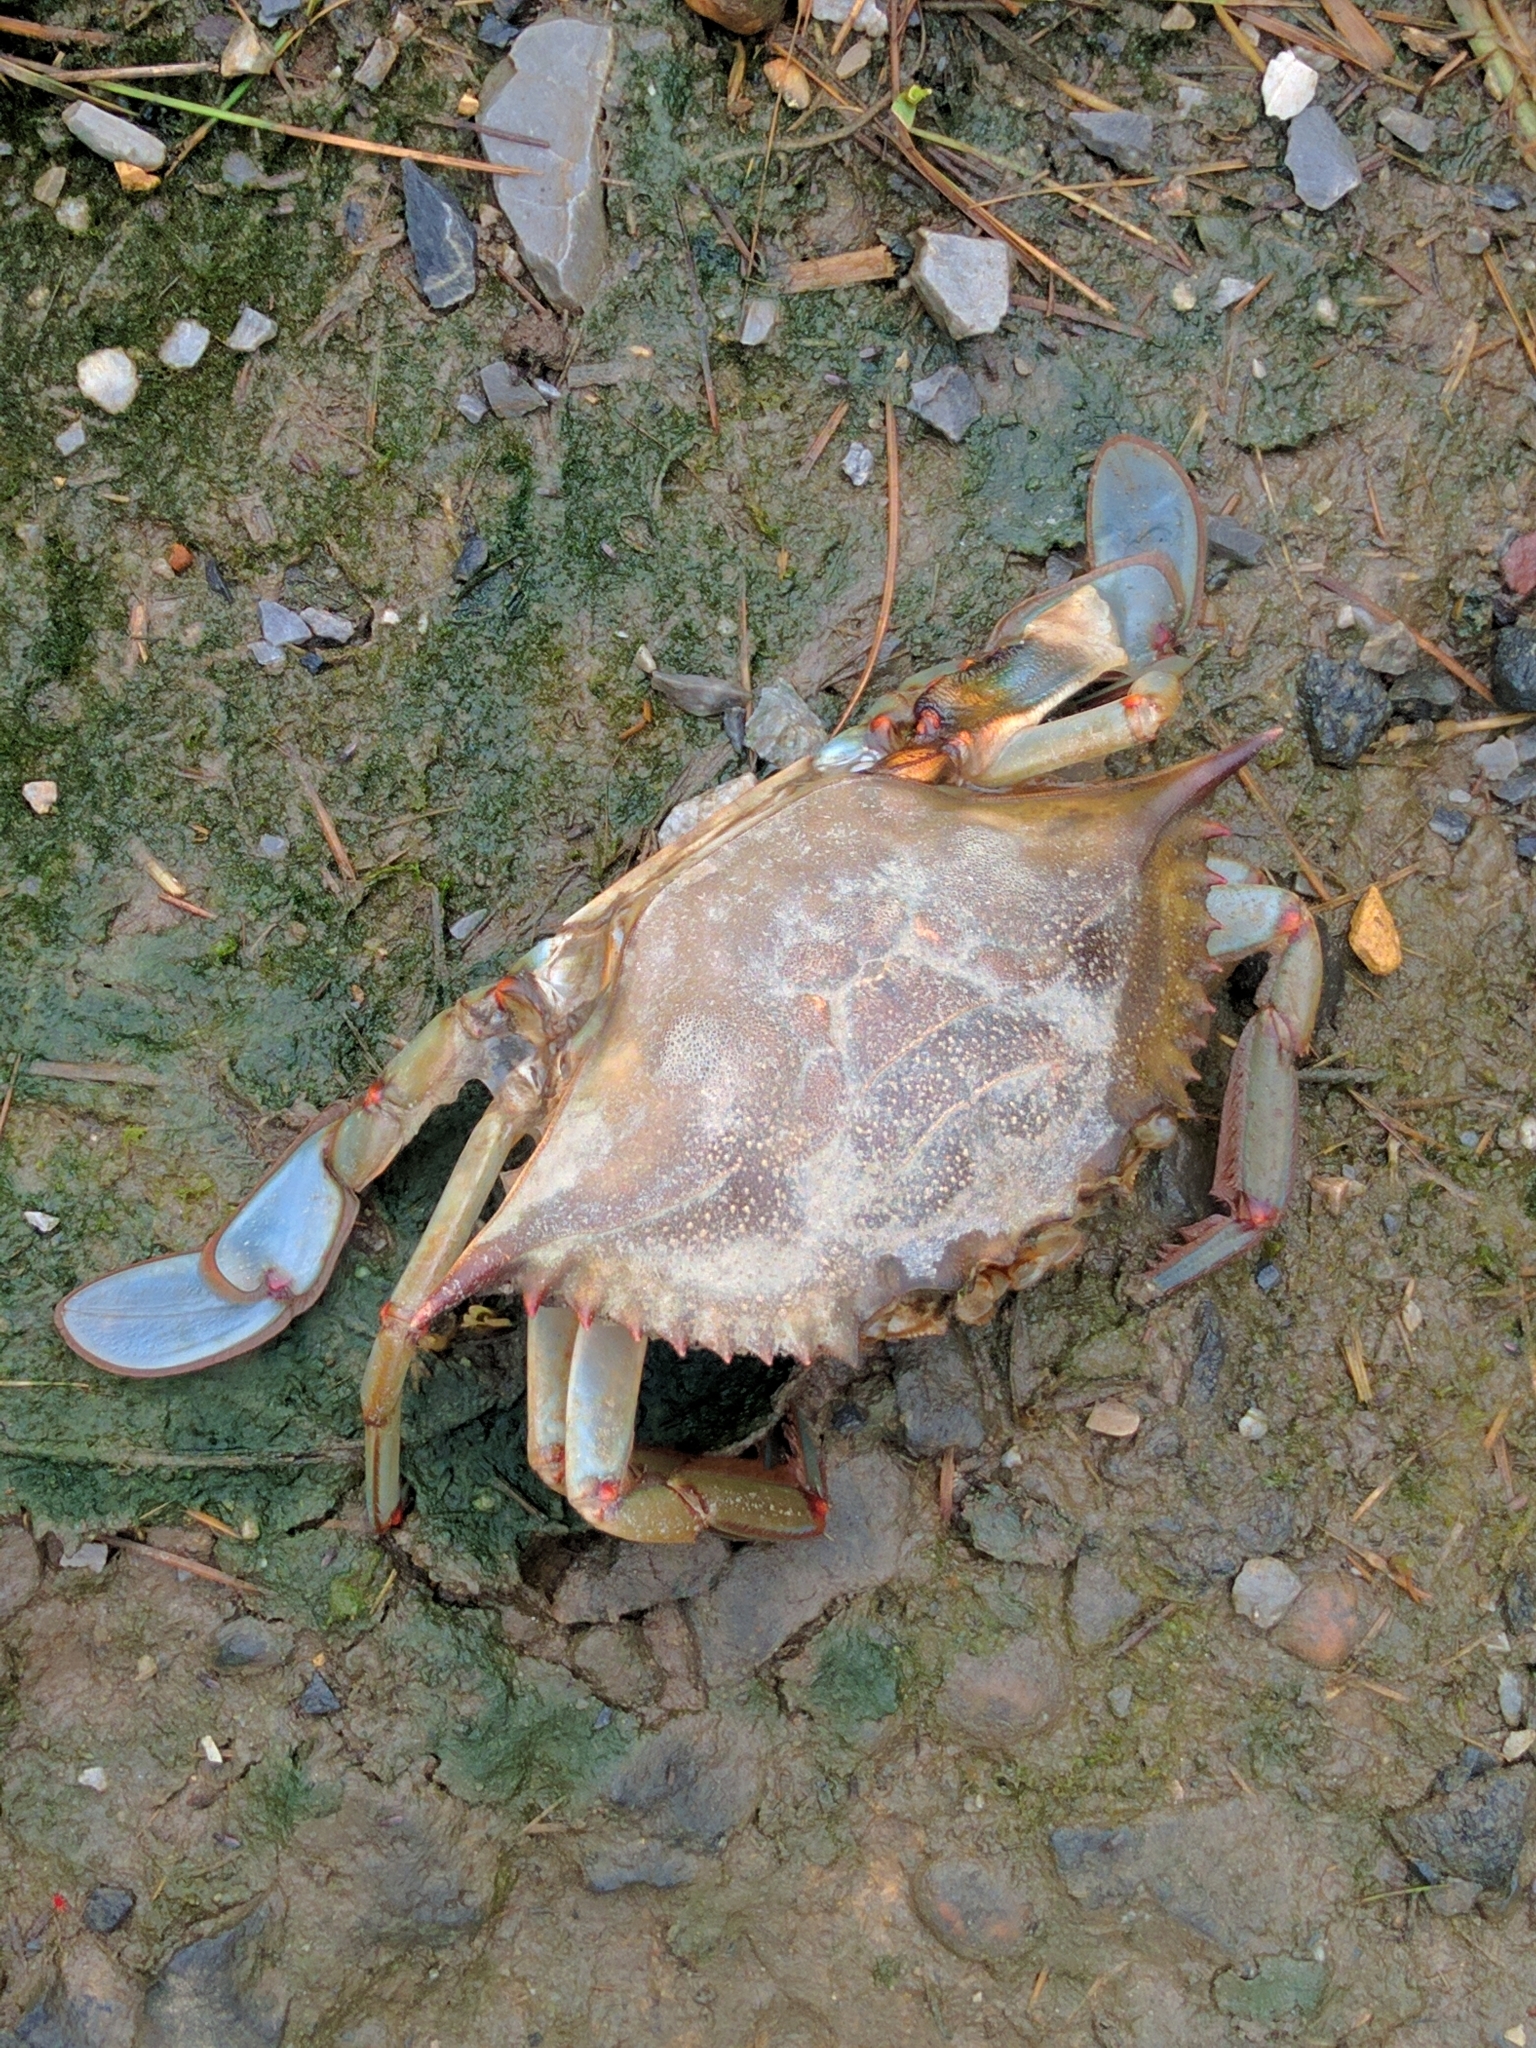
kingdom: Animalia
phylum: Arthropoda
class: Malacostraca
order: Decapoda
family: Portunidae
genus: Callinectes
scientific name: Callinectes sapidus
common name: Blue crab
